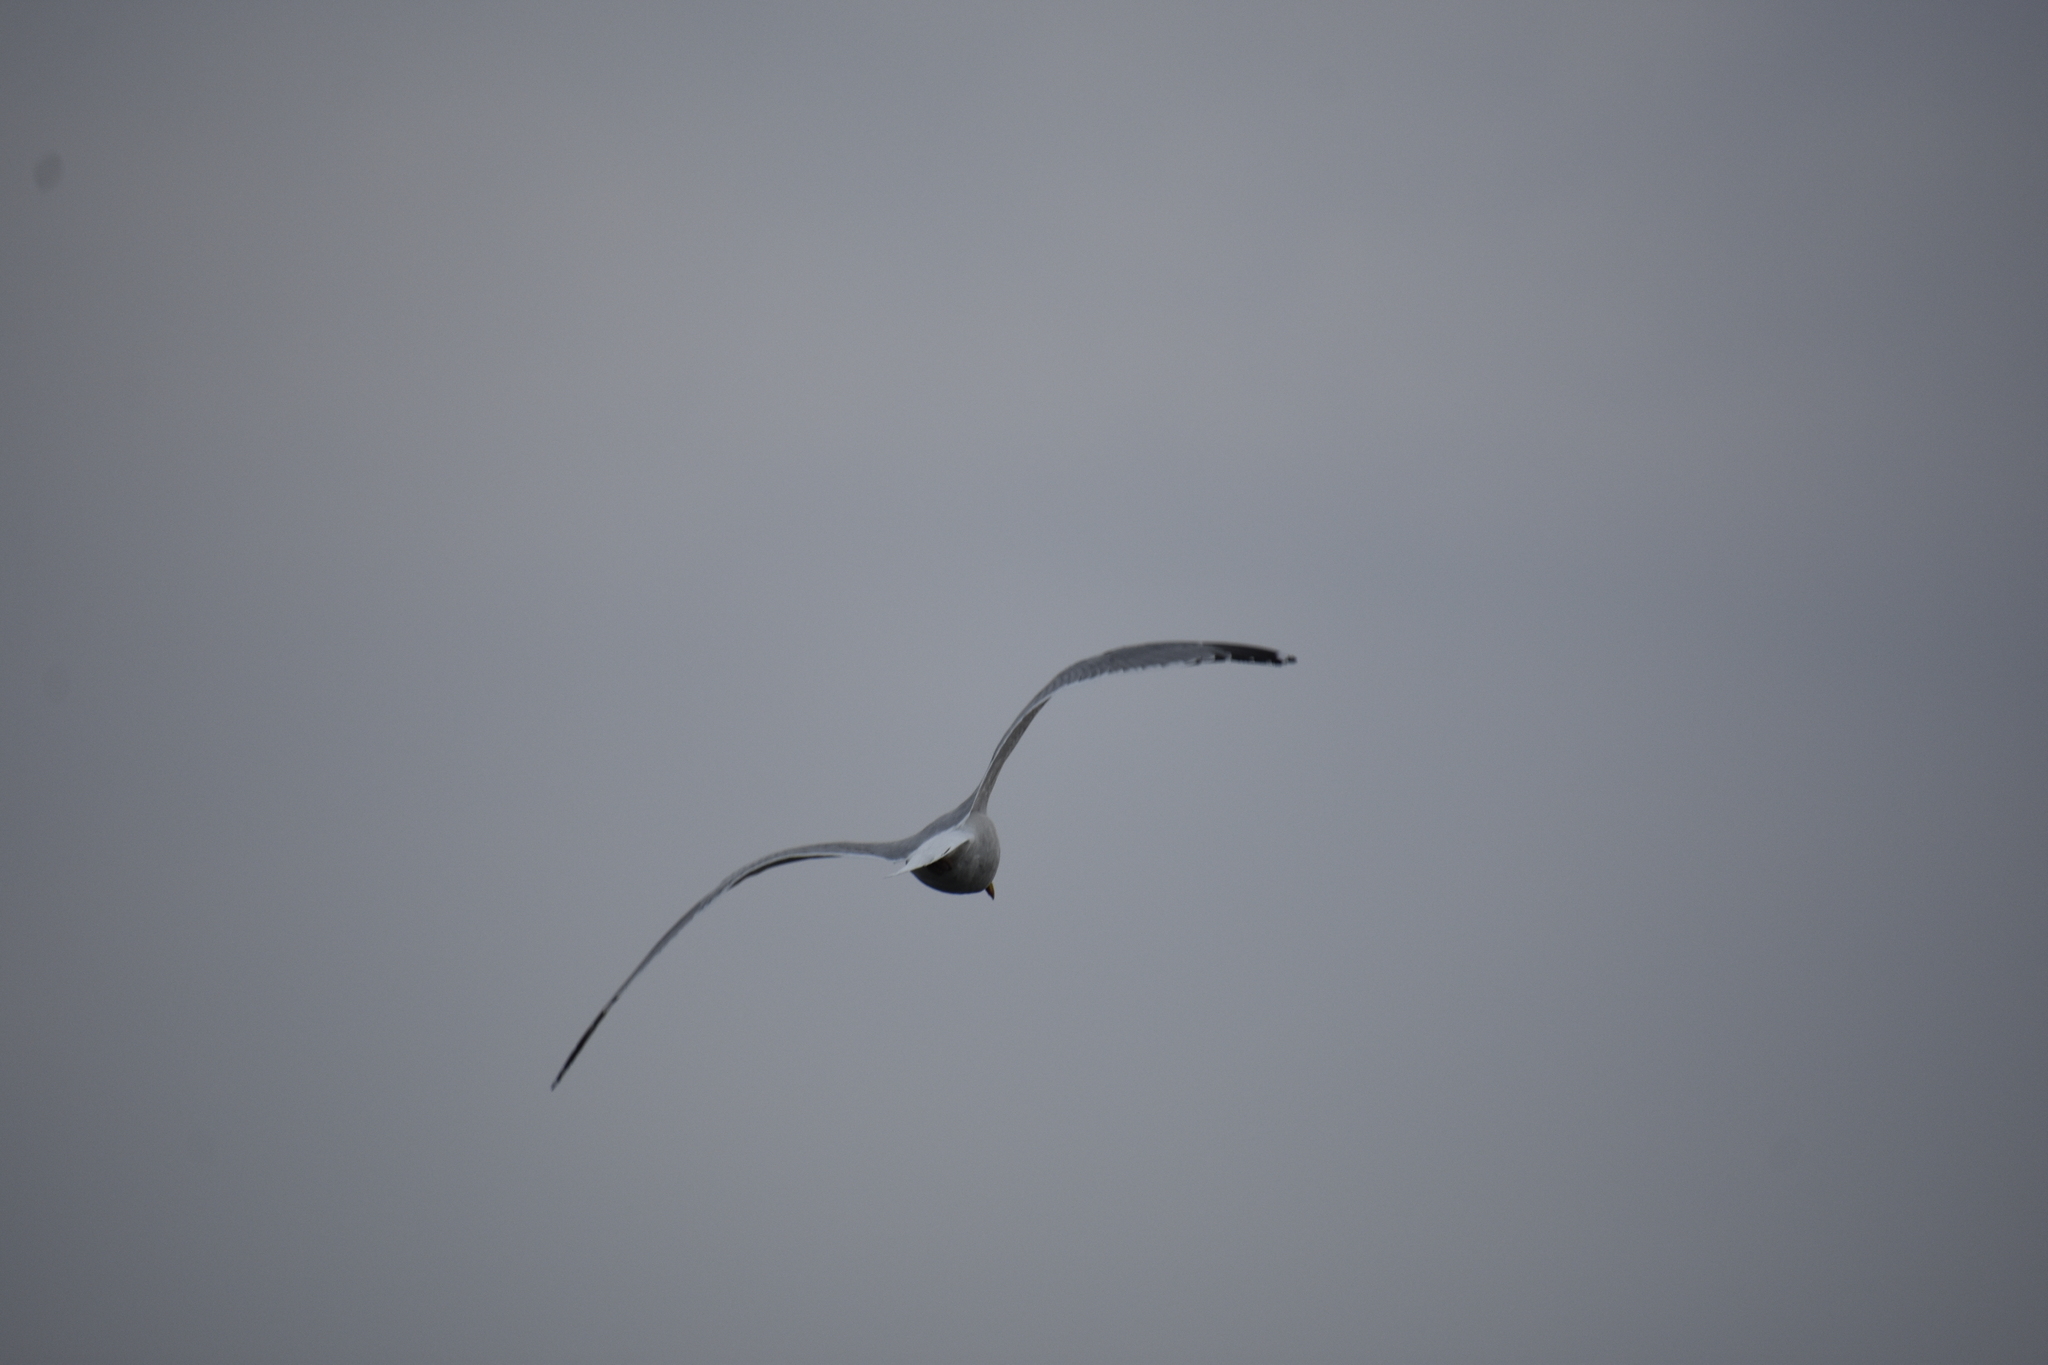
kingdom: Animalia
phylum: Chordata
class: Aves
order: Charadriiformes
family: Laridae
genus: Larus
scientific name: Larus argentatus
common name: Herring gull
